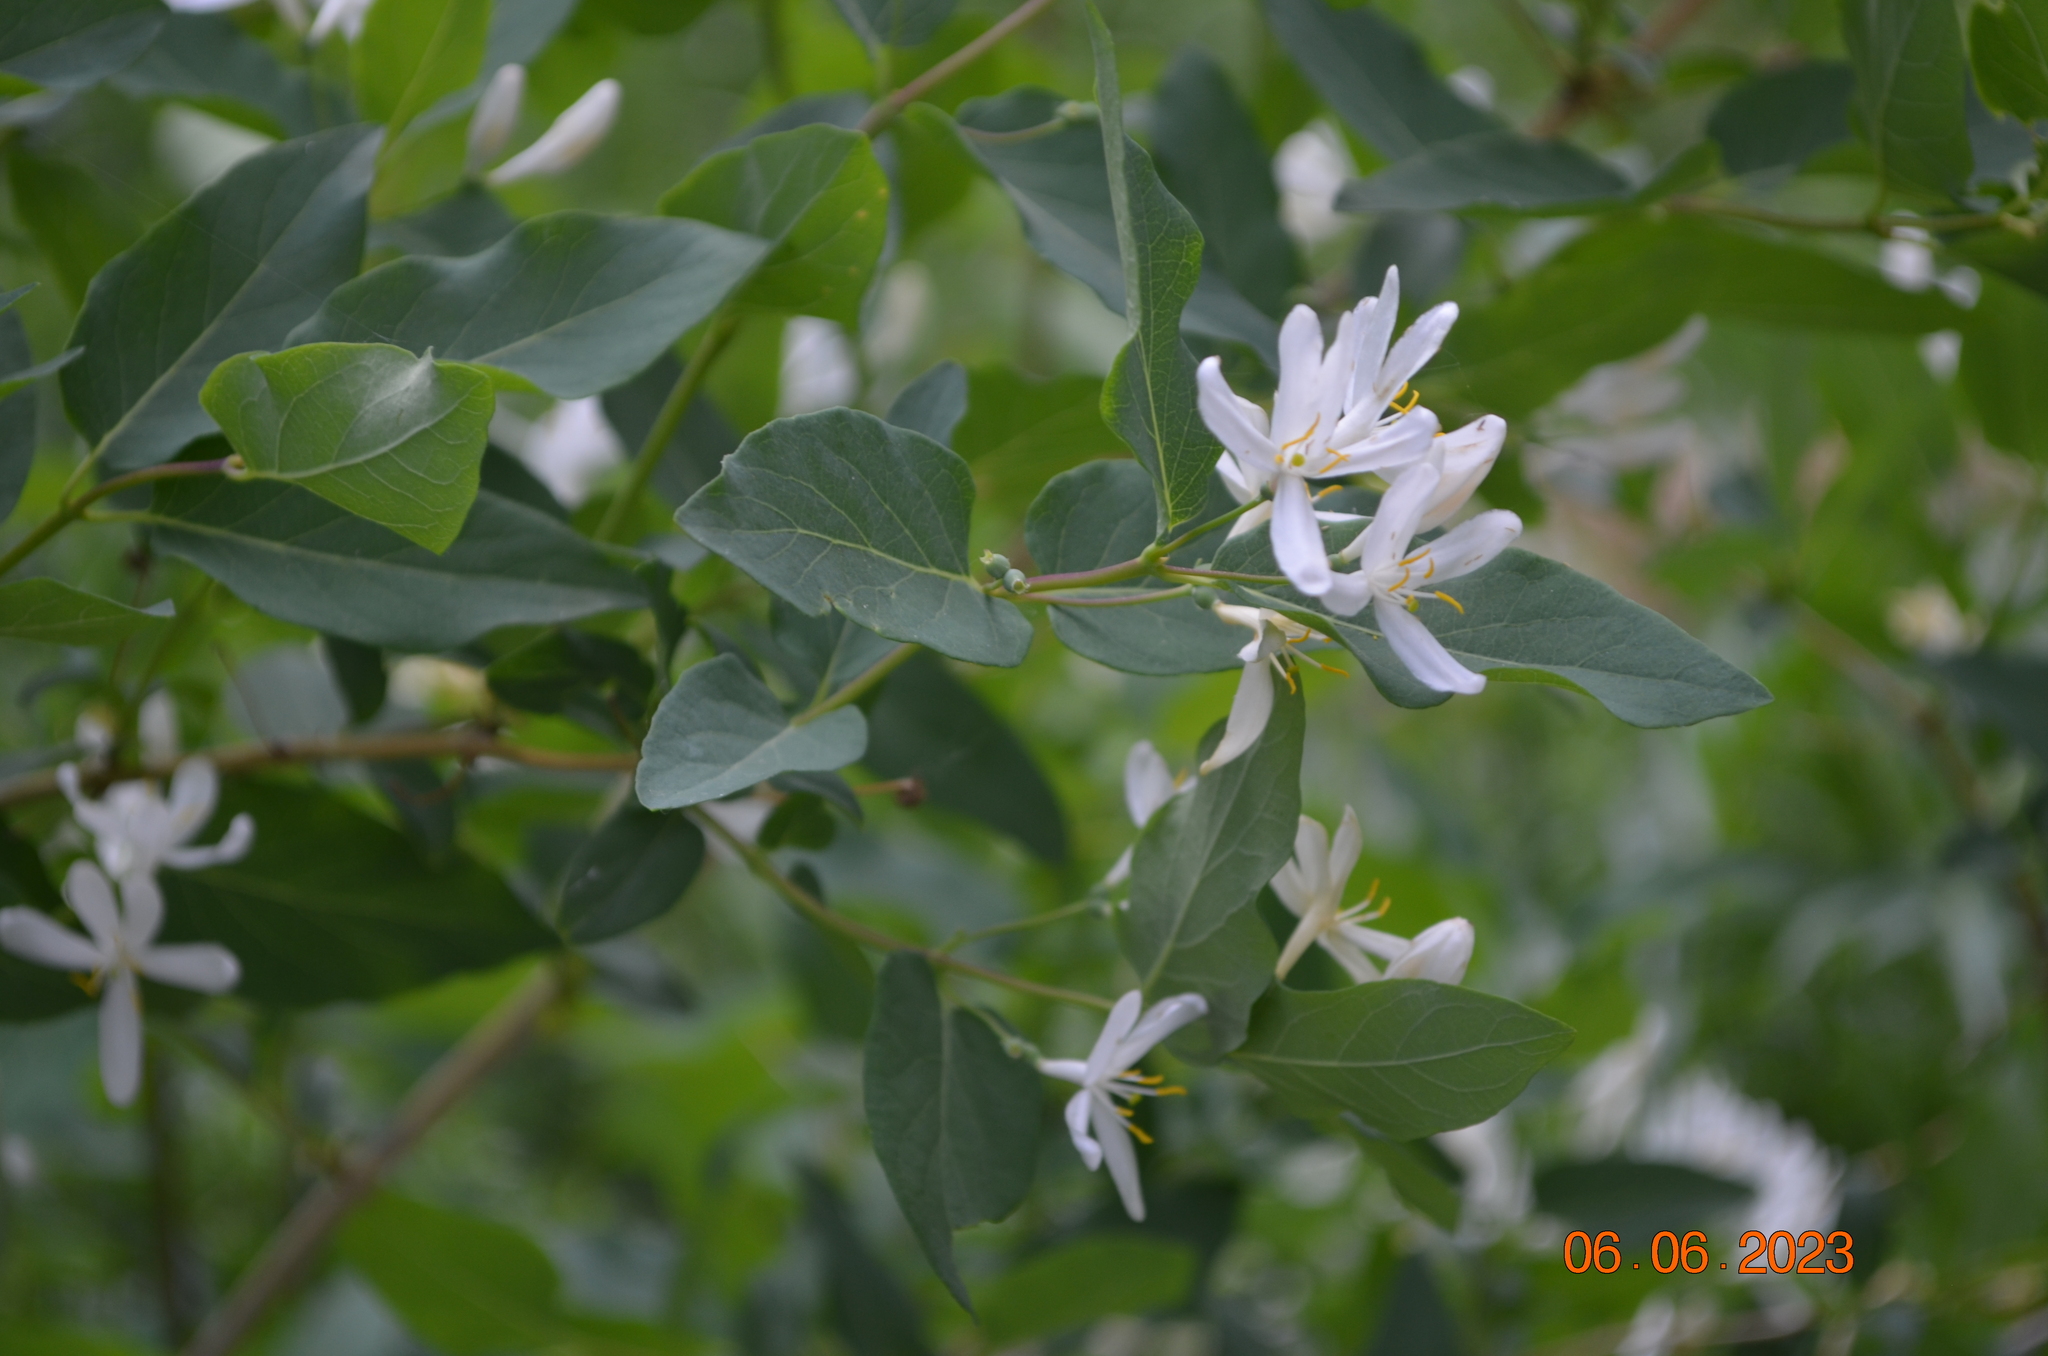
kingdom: Plantae
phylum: Tracheophyta
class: Magnoliopsida
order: Dipsacales
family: Caprifoliaceae
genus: Lonicera
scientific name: Lonicera tatarica
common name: Tatarian honeysuckle
